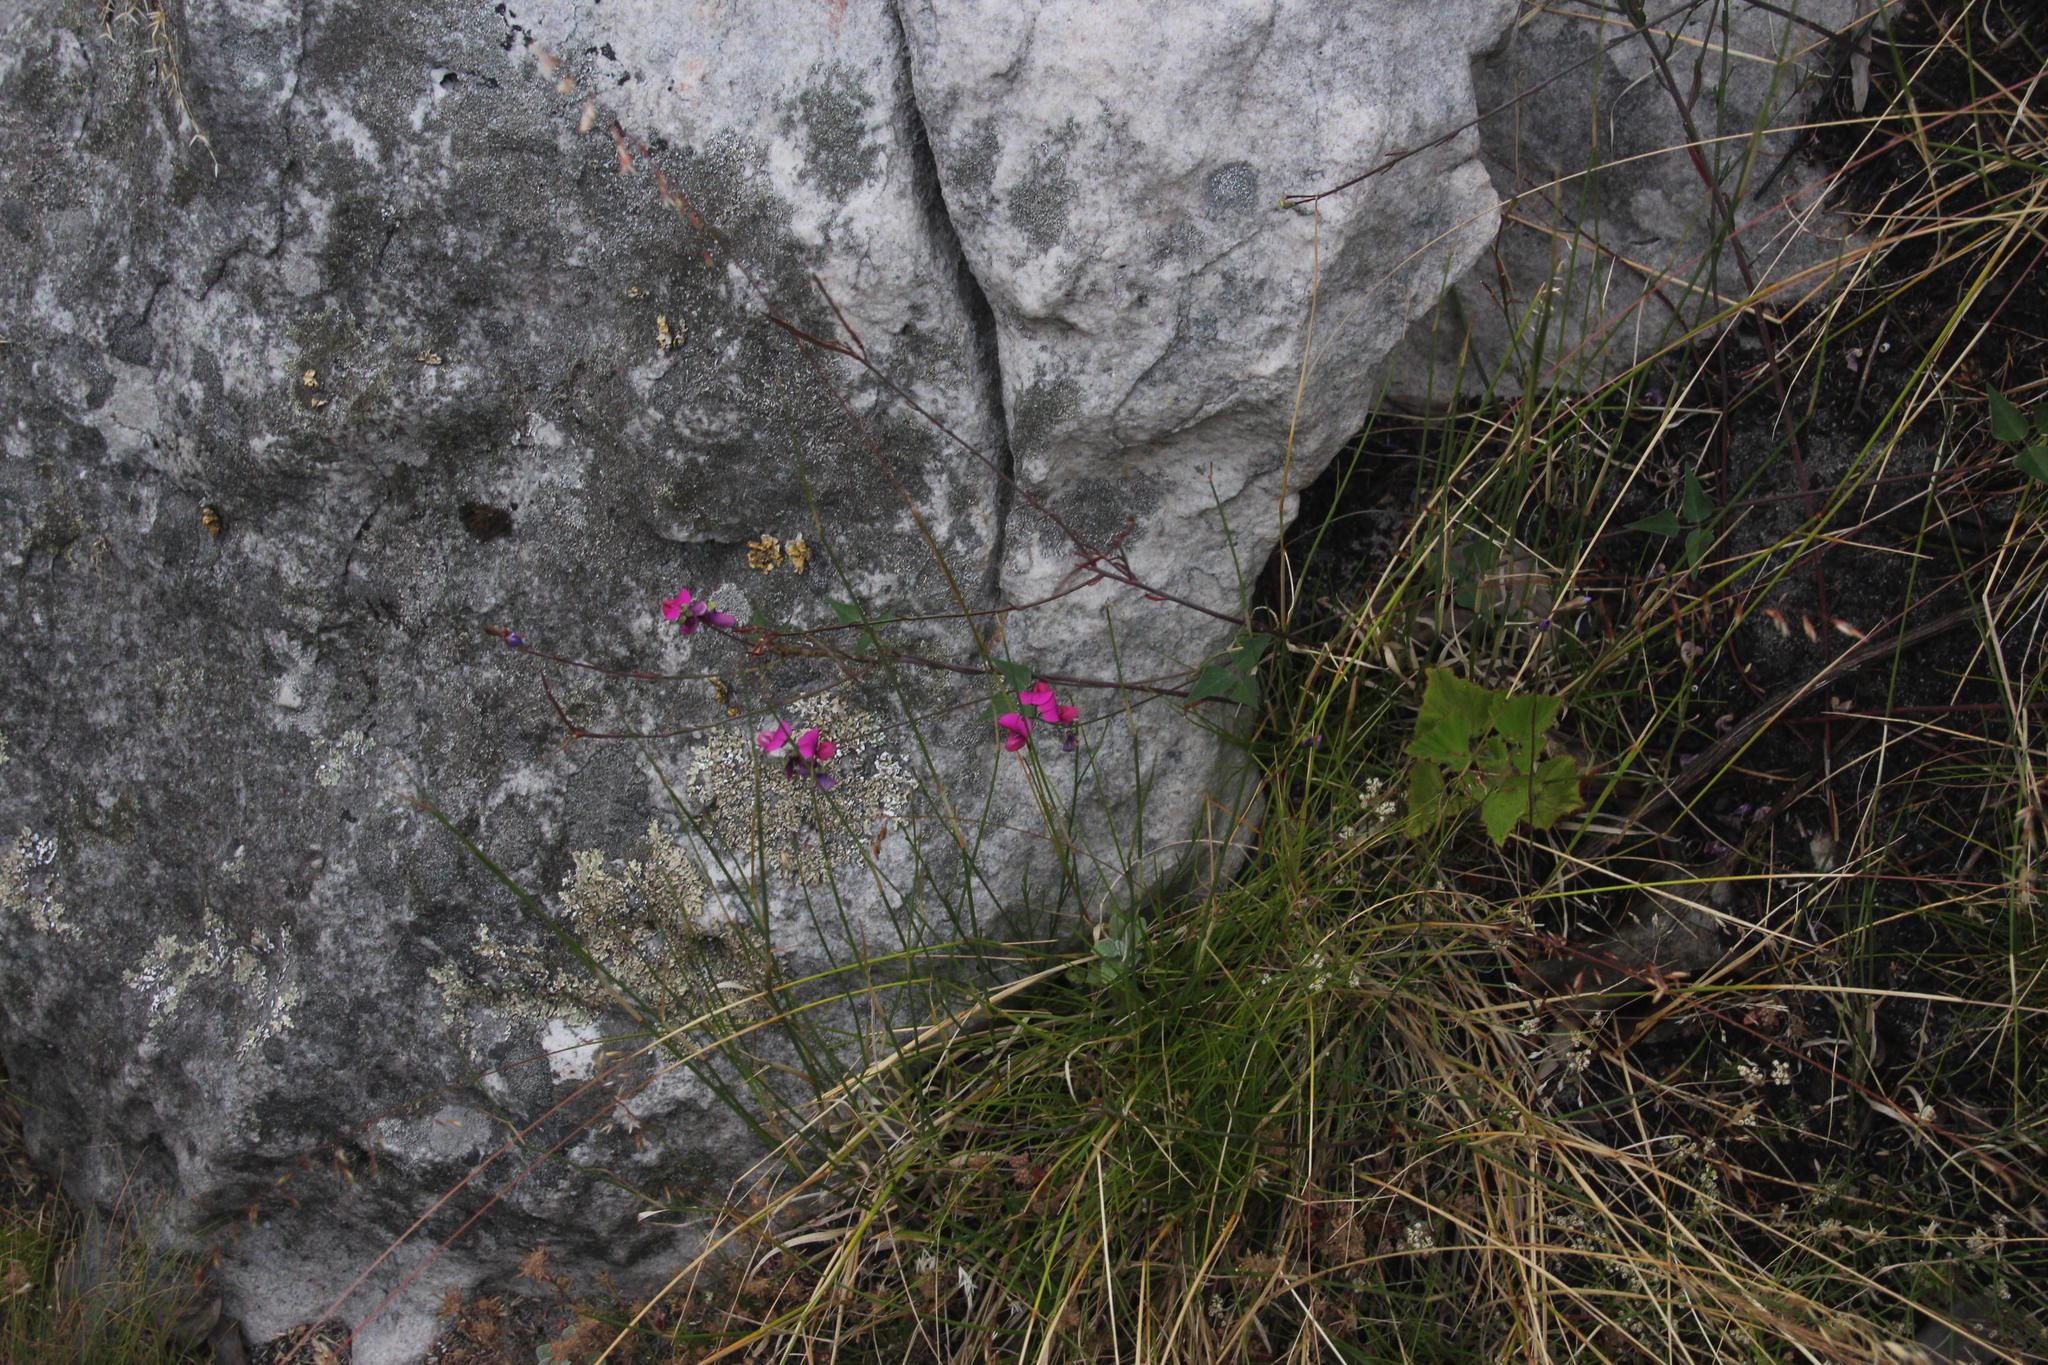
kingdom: Plantae
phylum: Tracheophyta
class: Magnoliopsida
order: Fabales
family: Fabaceae
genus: Dipogon
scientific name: Dipogon lignosus
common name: Okie bean
